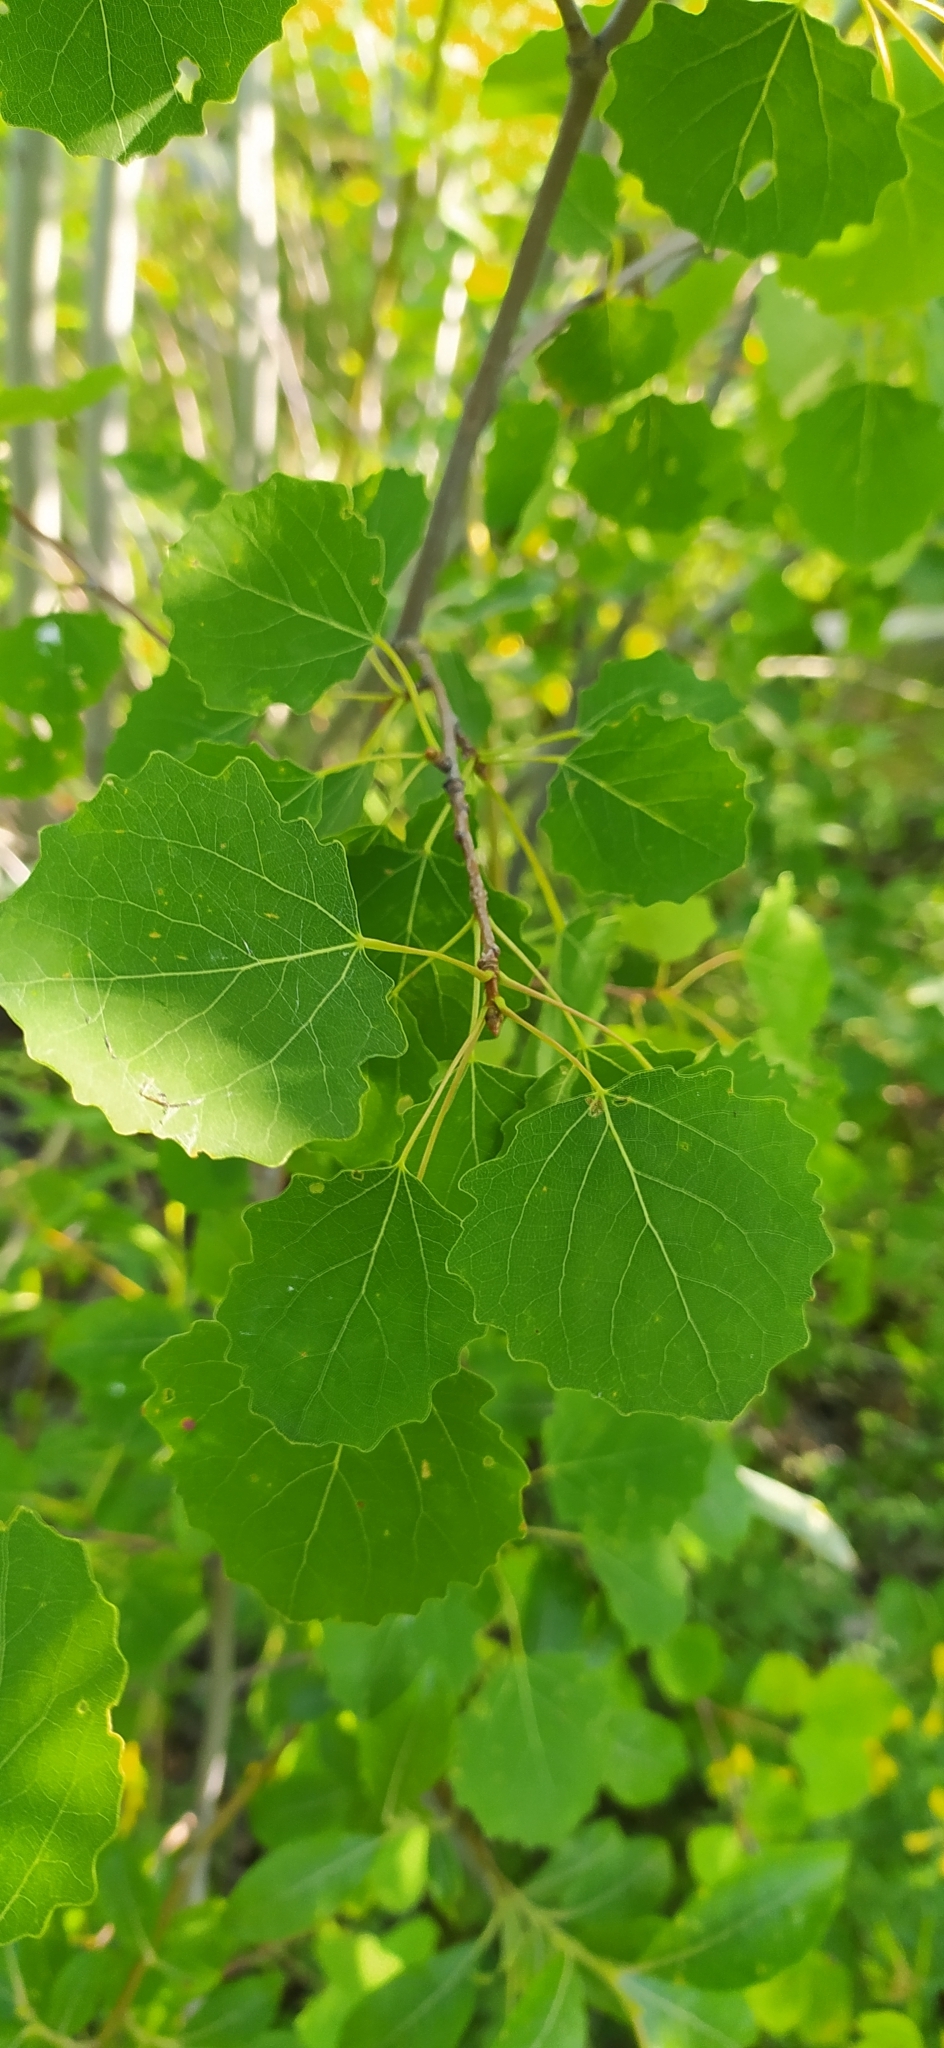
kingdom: Plantae
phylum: Tracheophyta
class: Magnoliopsida
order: Malpighiales
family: Salicaceae
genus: Populus
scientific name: Populus tremula
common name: European aspen
